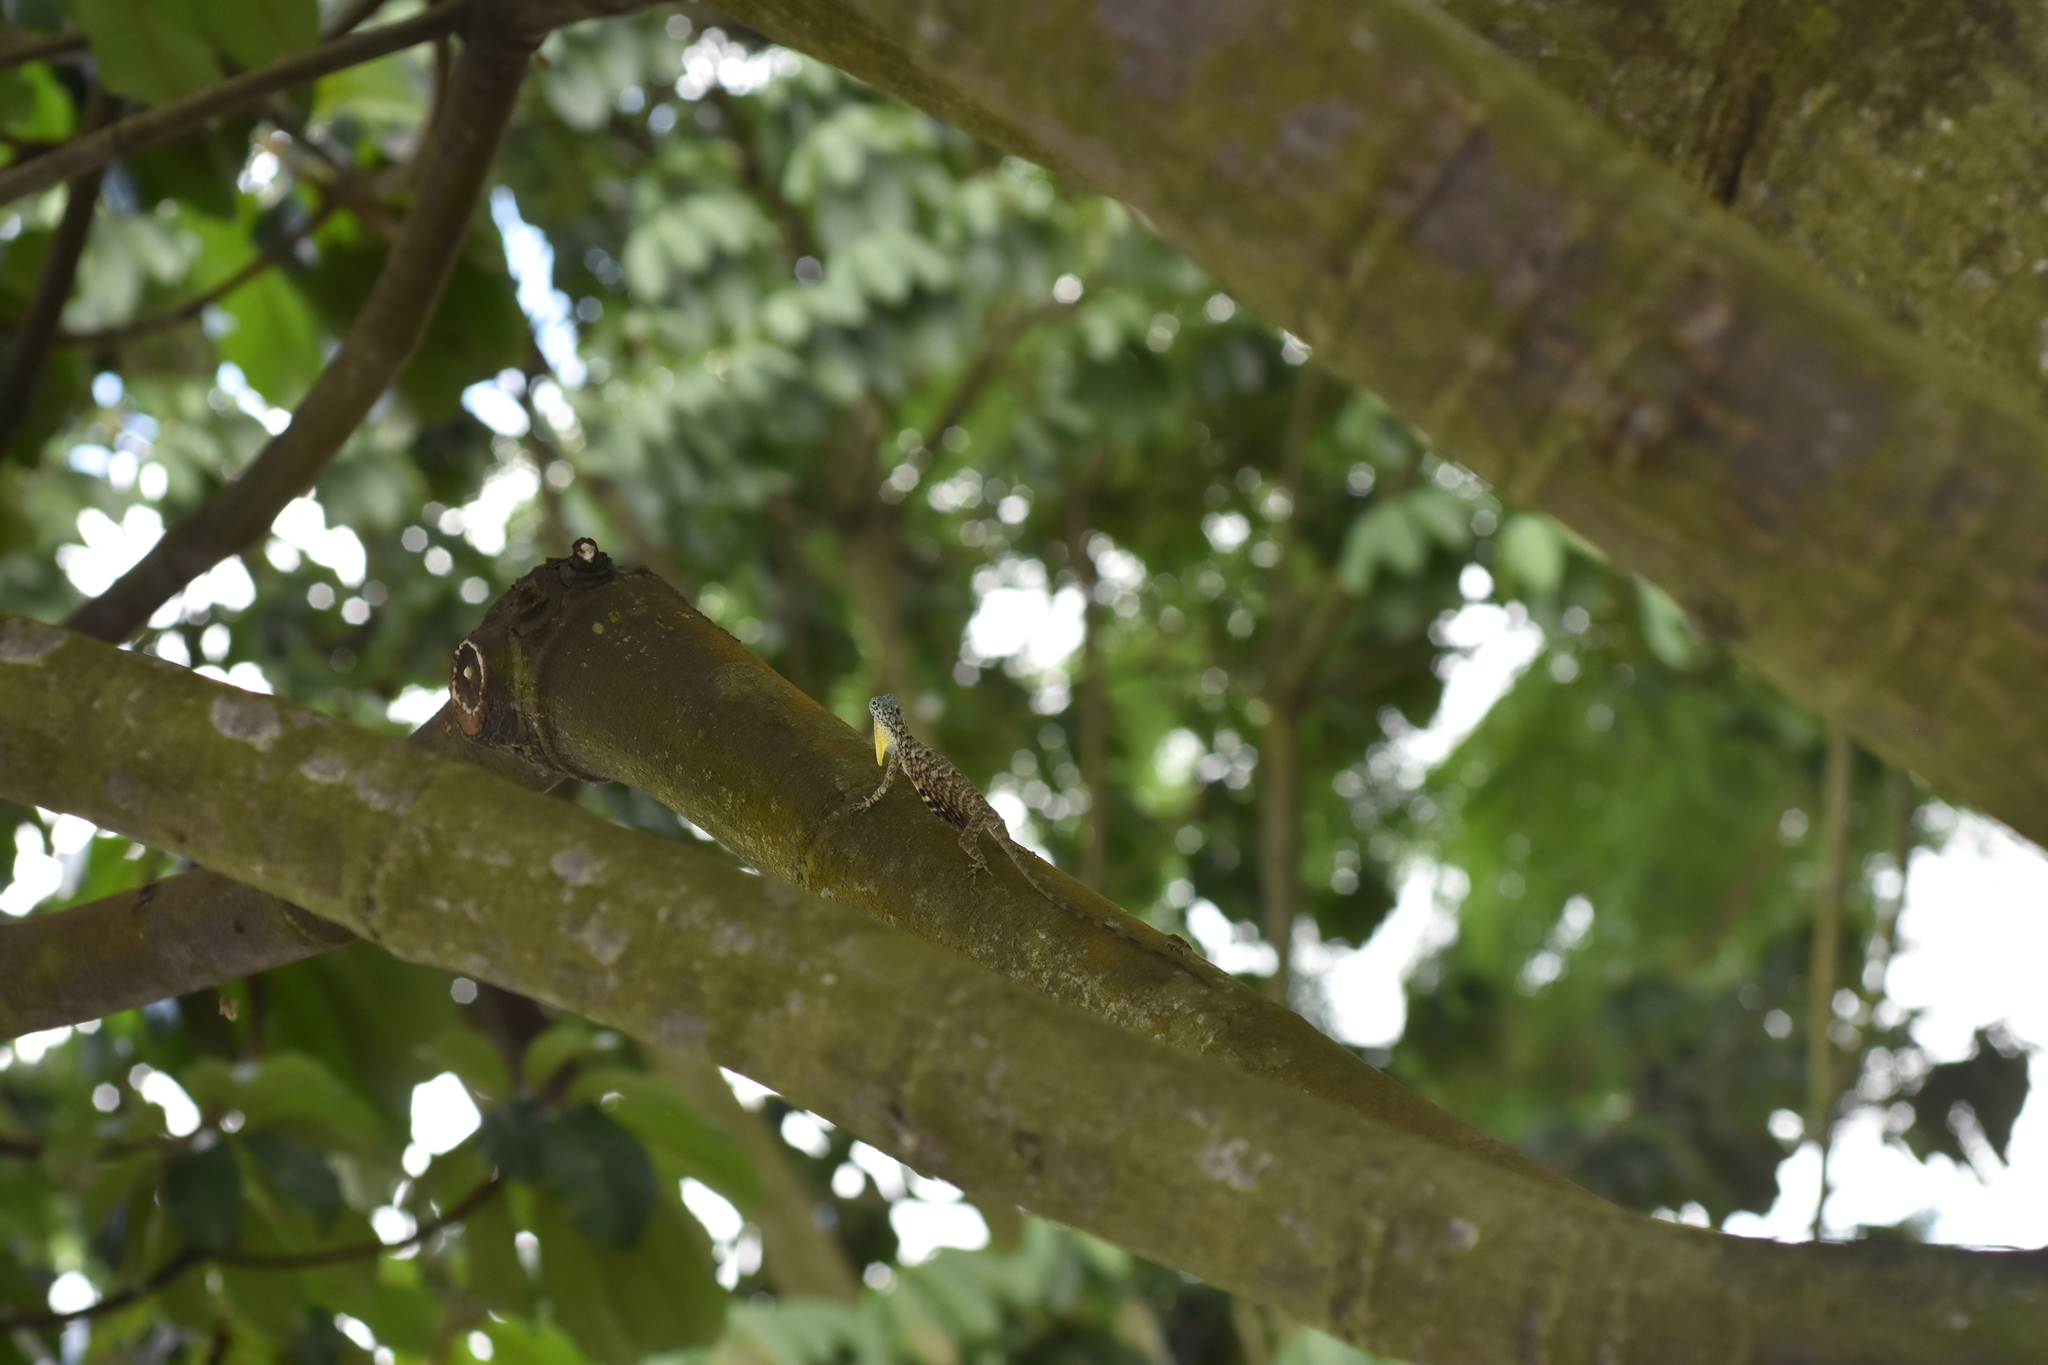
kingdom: Animalia
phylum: Chordata
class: Squamata
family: Agamidae
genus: Draco
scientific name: Draco sumatranus
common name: Common gliding lizard
